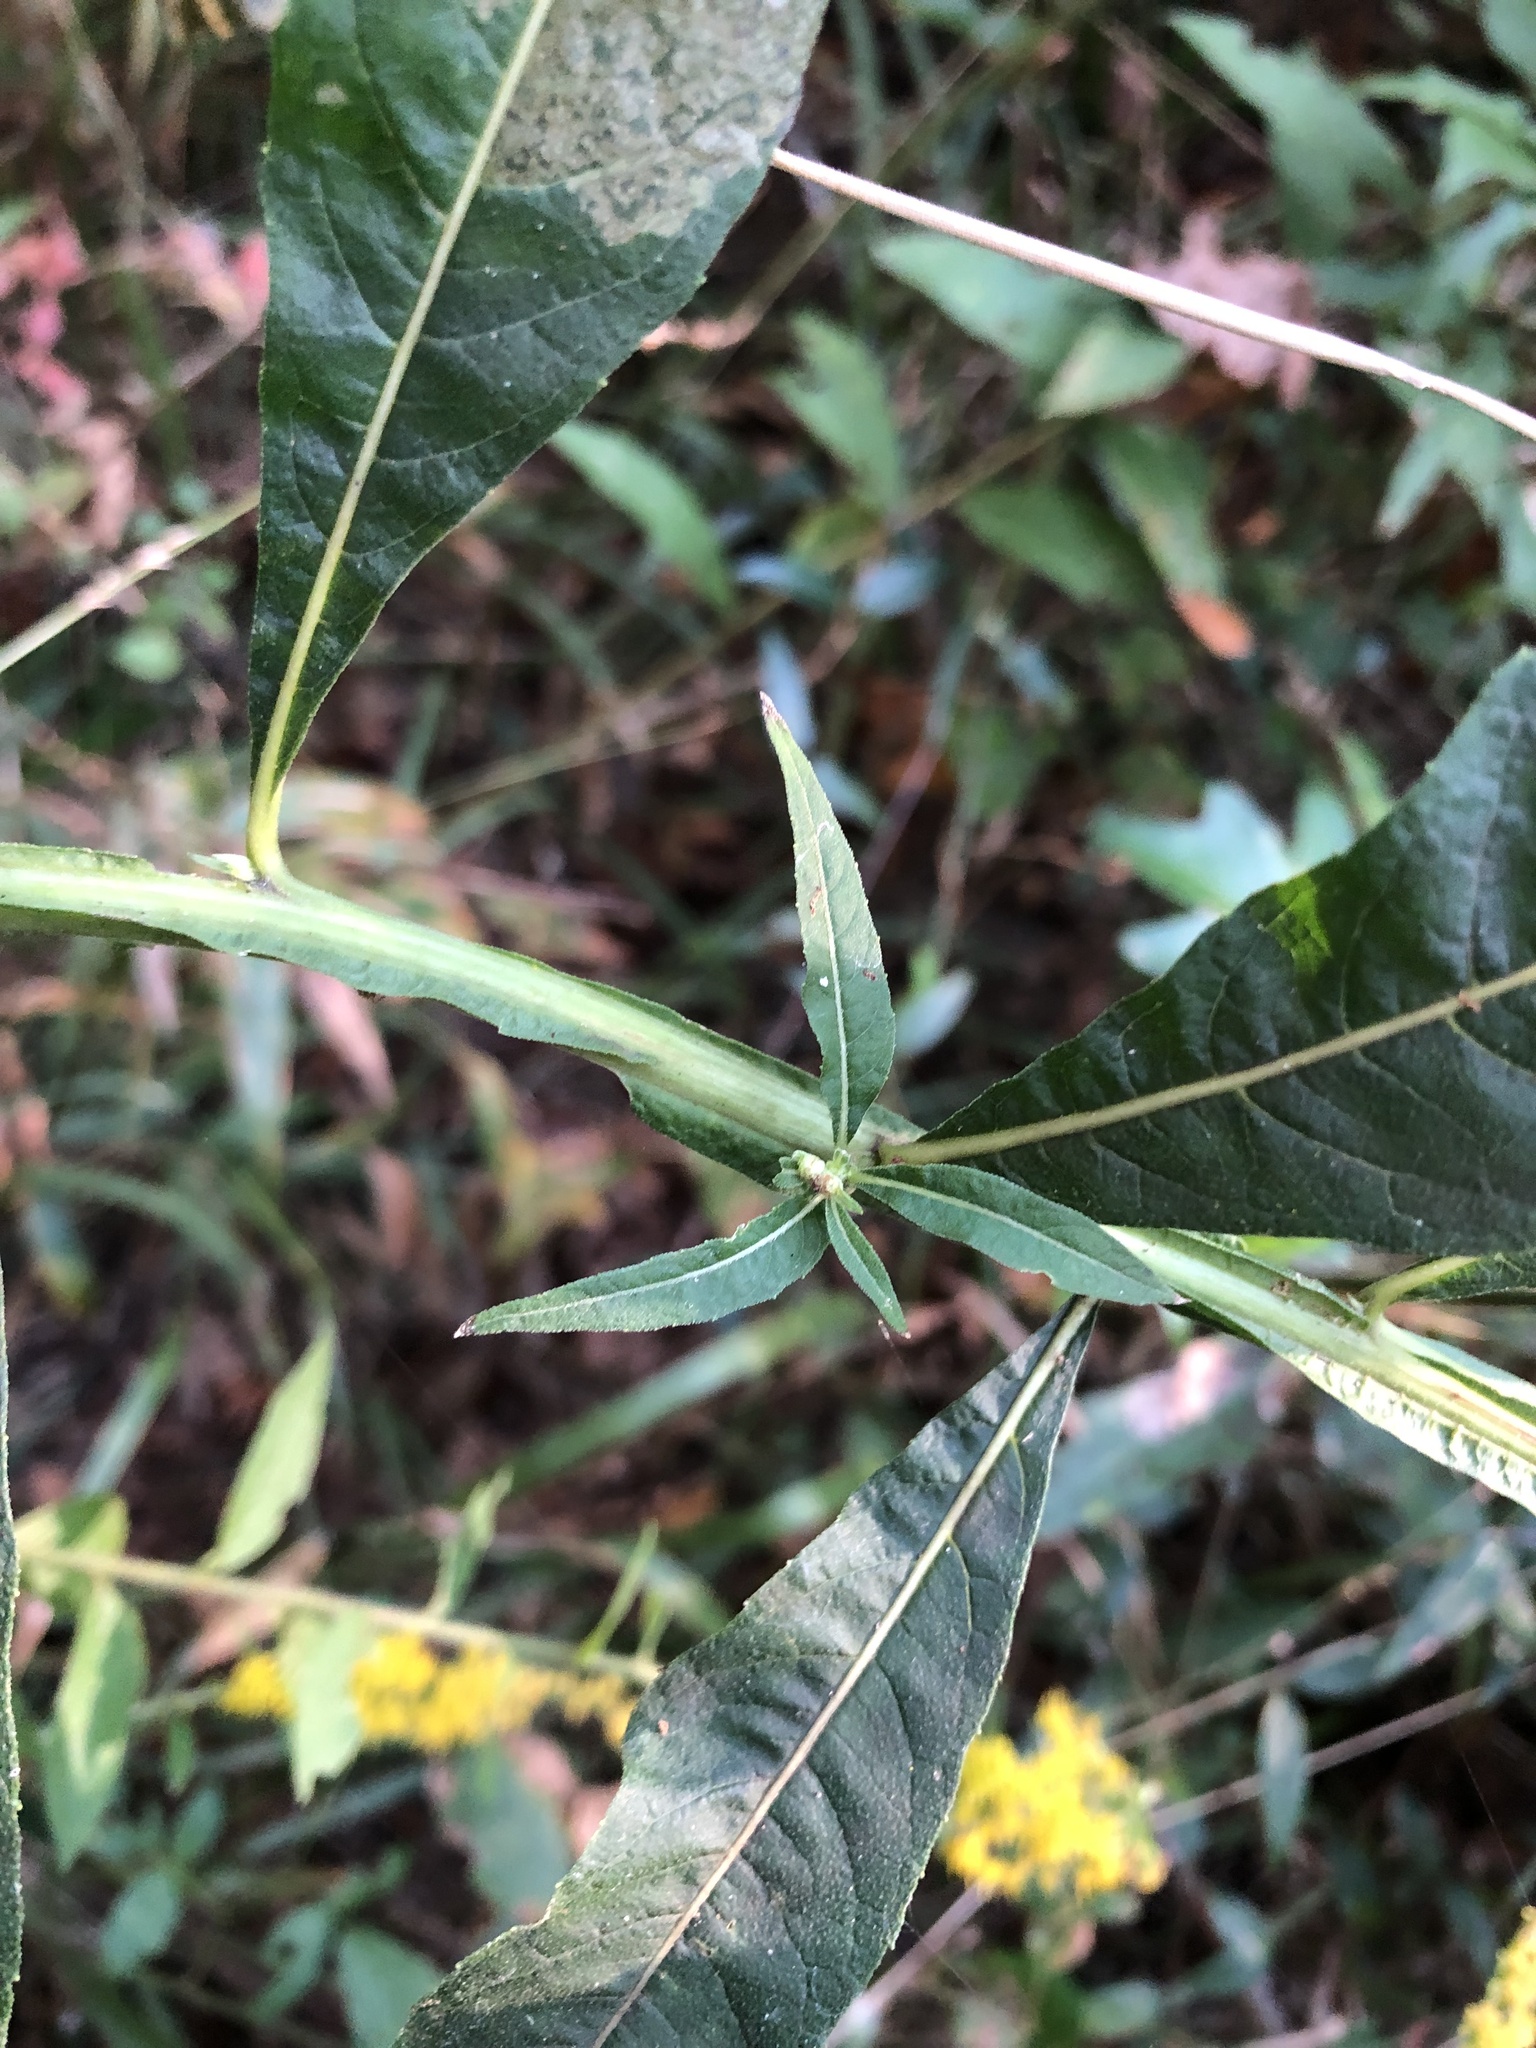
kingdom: Plantae
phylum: Tracheophyta
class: Magnoliopsida
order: Asterales
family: Asteraceae
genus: Verbesina
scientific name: Verbesina walteri
